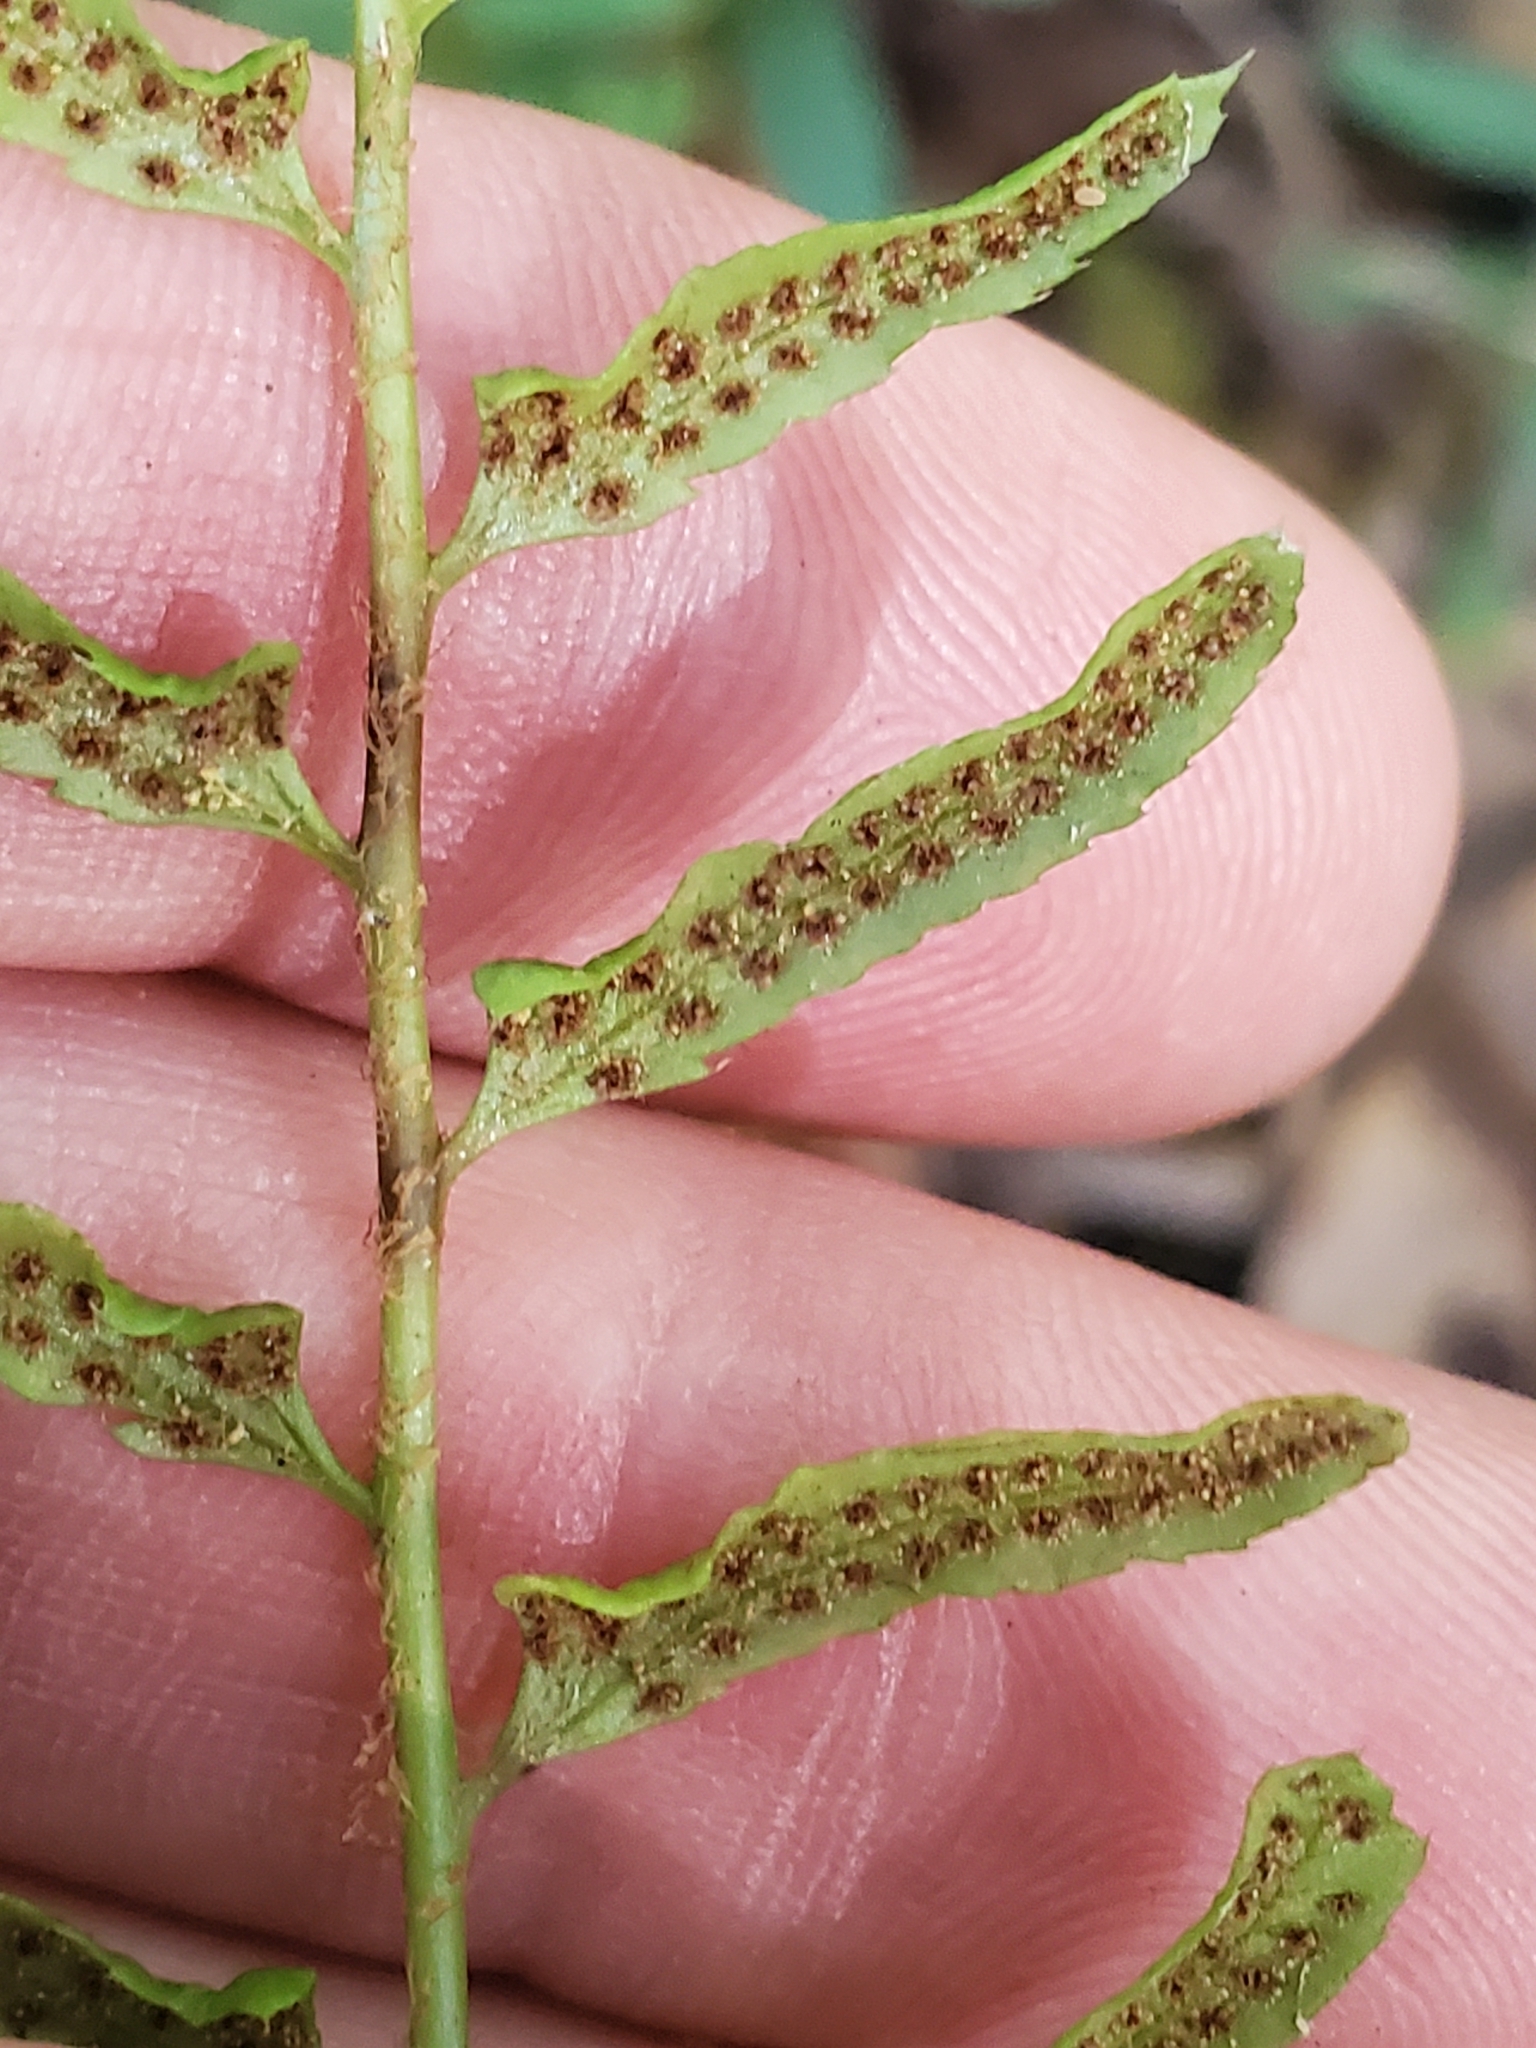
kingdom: Plantae
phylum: Tracheophyta
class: Polypodiopsida
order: Polypodiales
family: Dryopteridaceae
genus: Polystichum
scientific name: Polystichum acrostichoides
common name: Christmas fern
